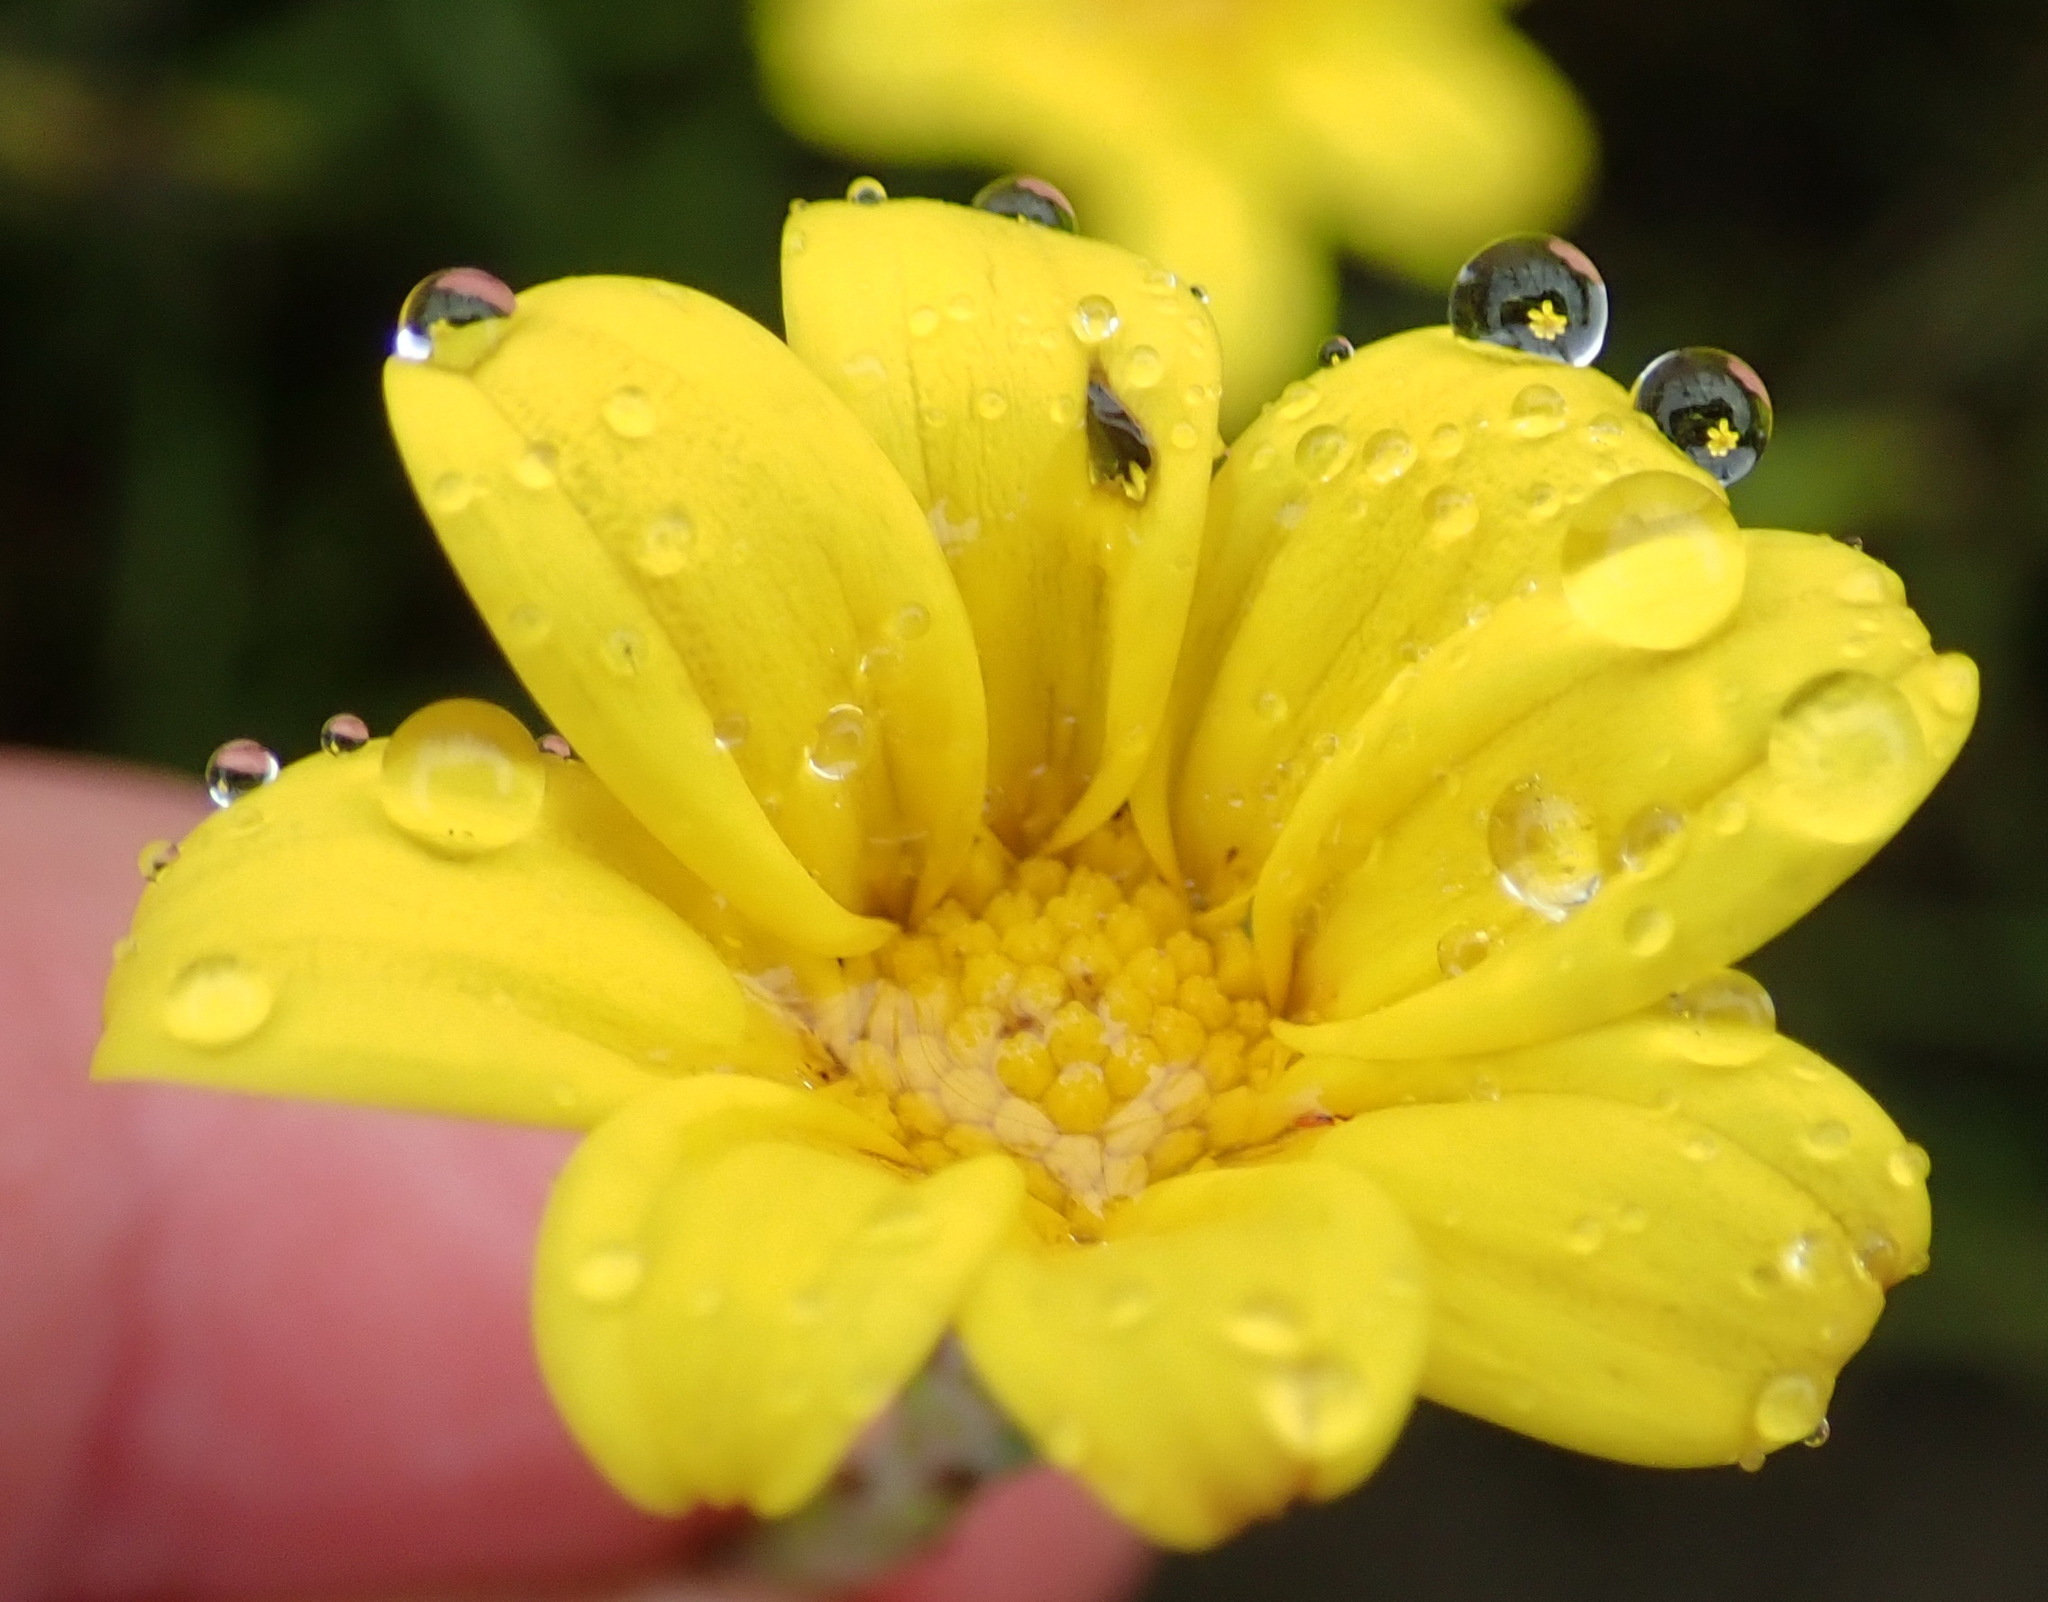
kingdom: Plantae
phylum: Tracheophyta
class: Magnoliopsida
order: Asterales
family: Asteraceae
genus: Osteospermum
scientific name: Osteospermum asperulum
